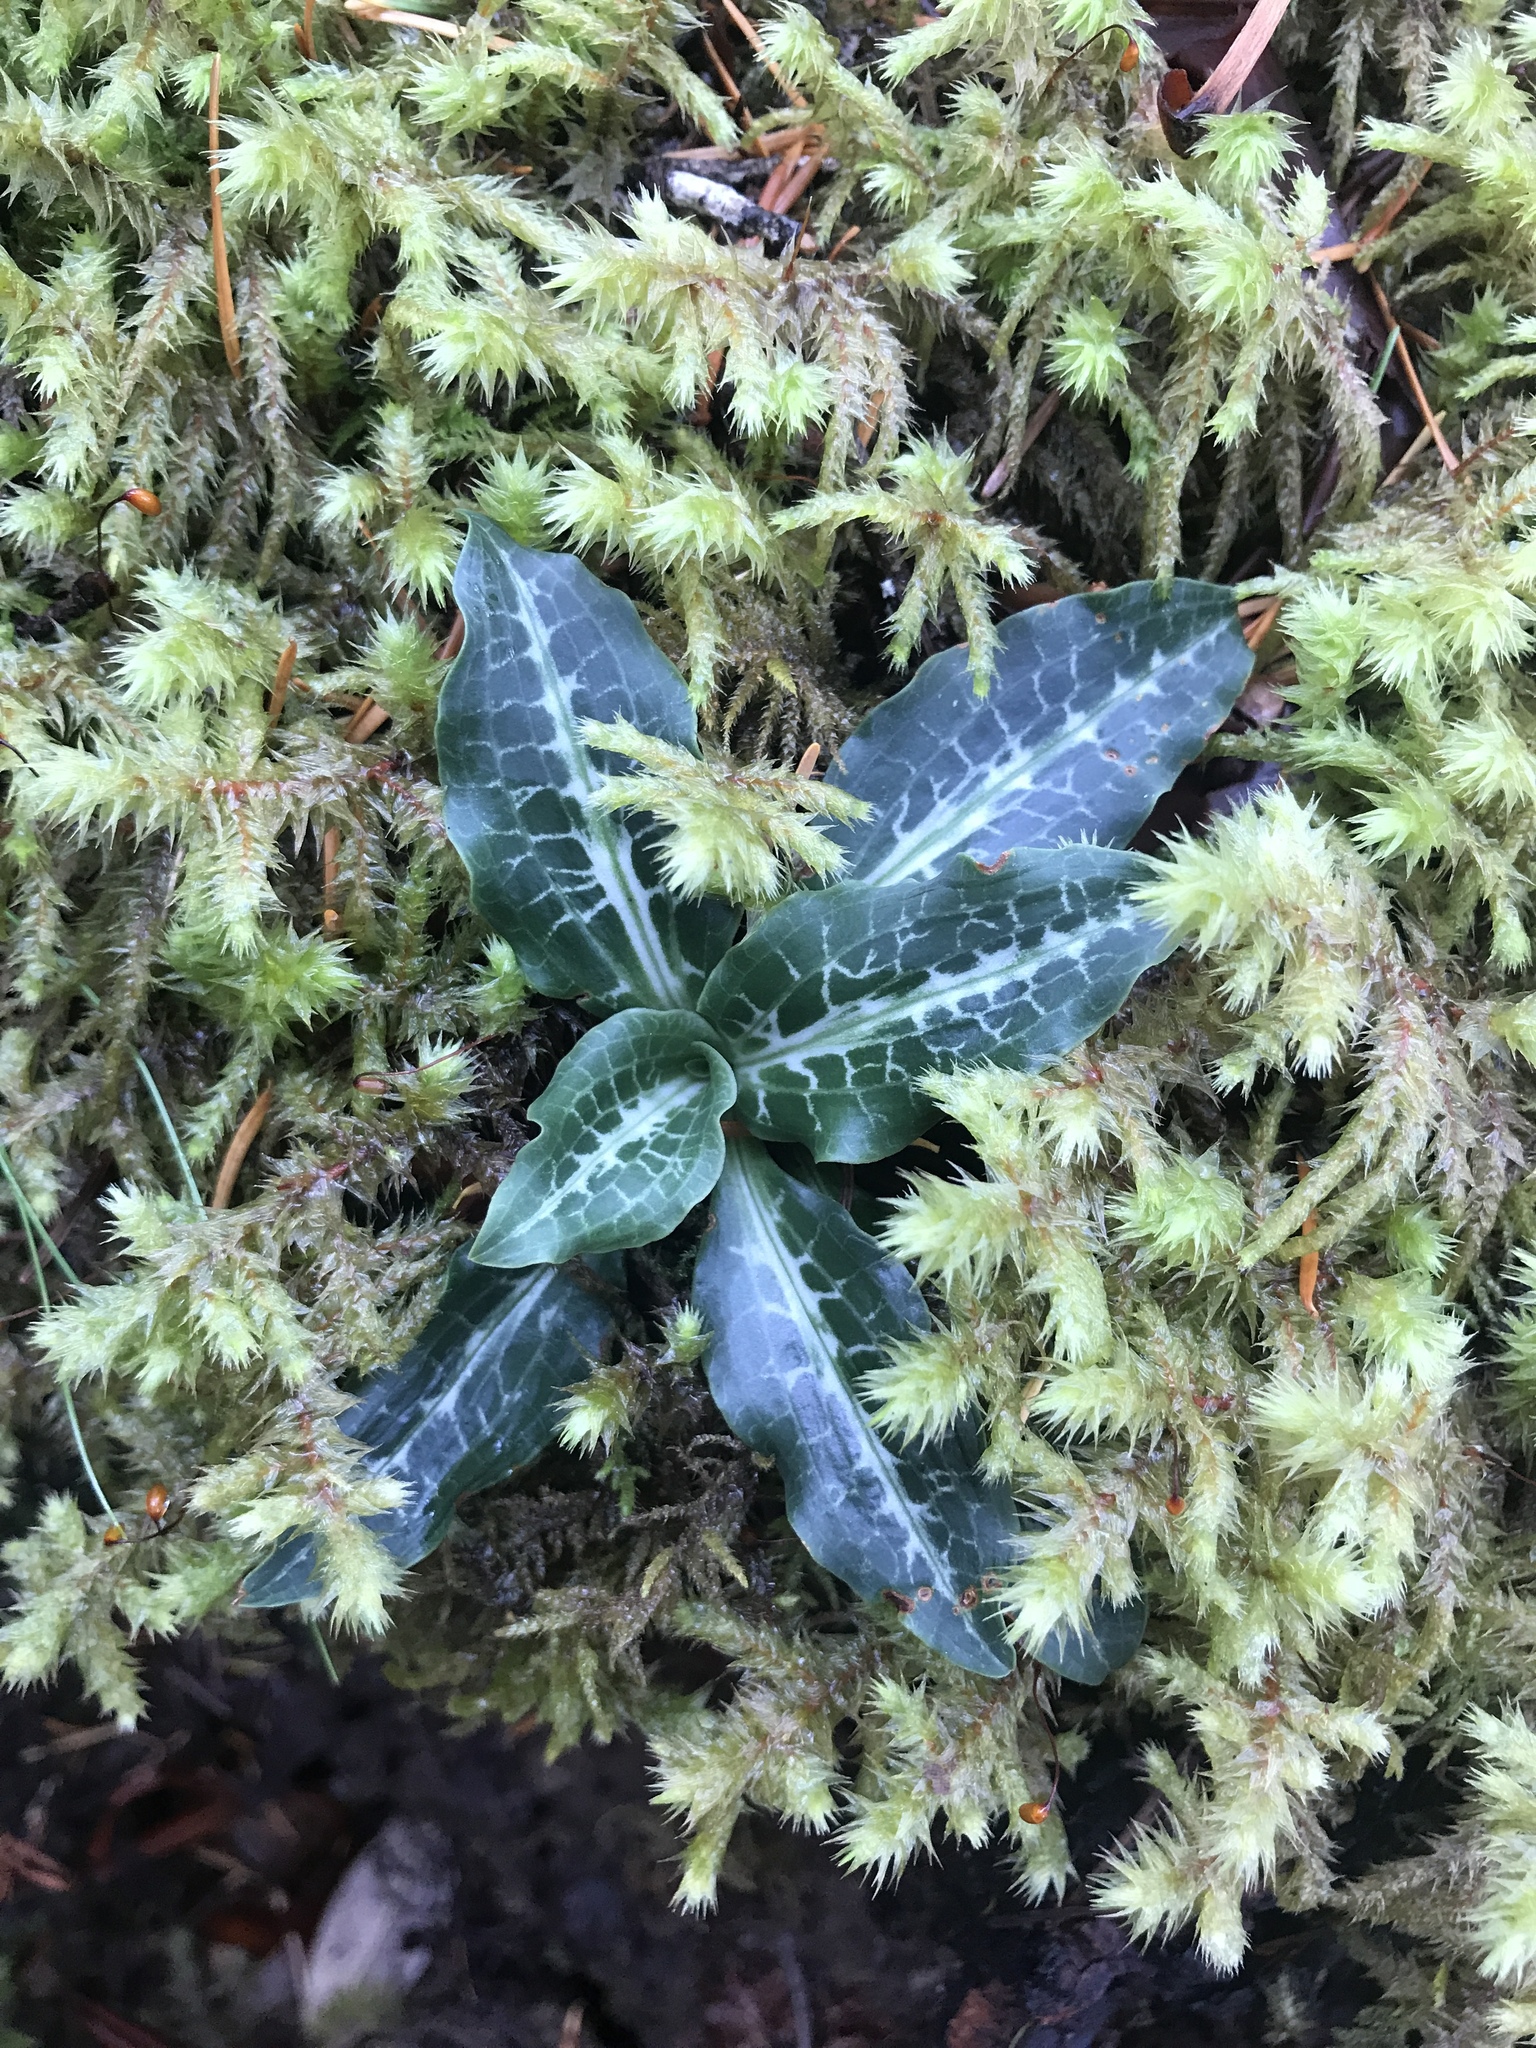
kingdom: Plantae
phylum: Tracheophyta
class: Liliopsida
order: Asparagales
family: Orchidaceae
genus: Goodyera
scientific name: Goodyera oblongifolia
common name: Giant rattlesnake-plantain
